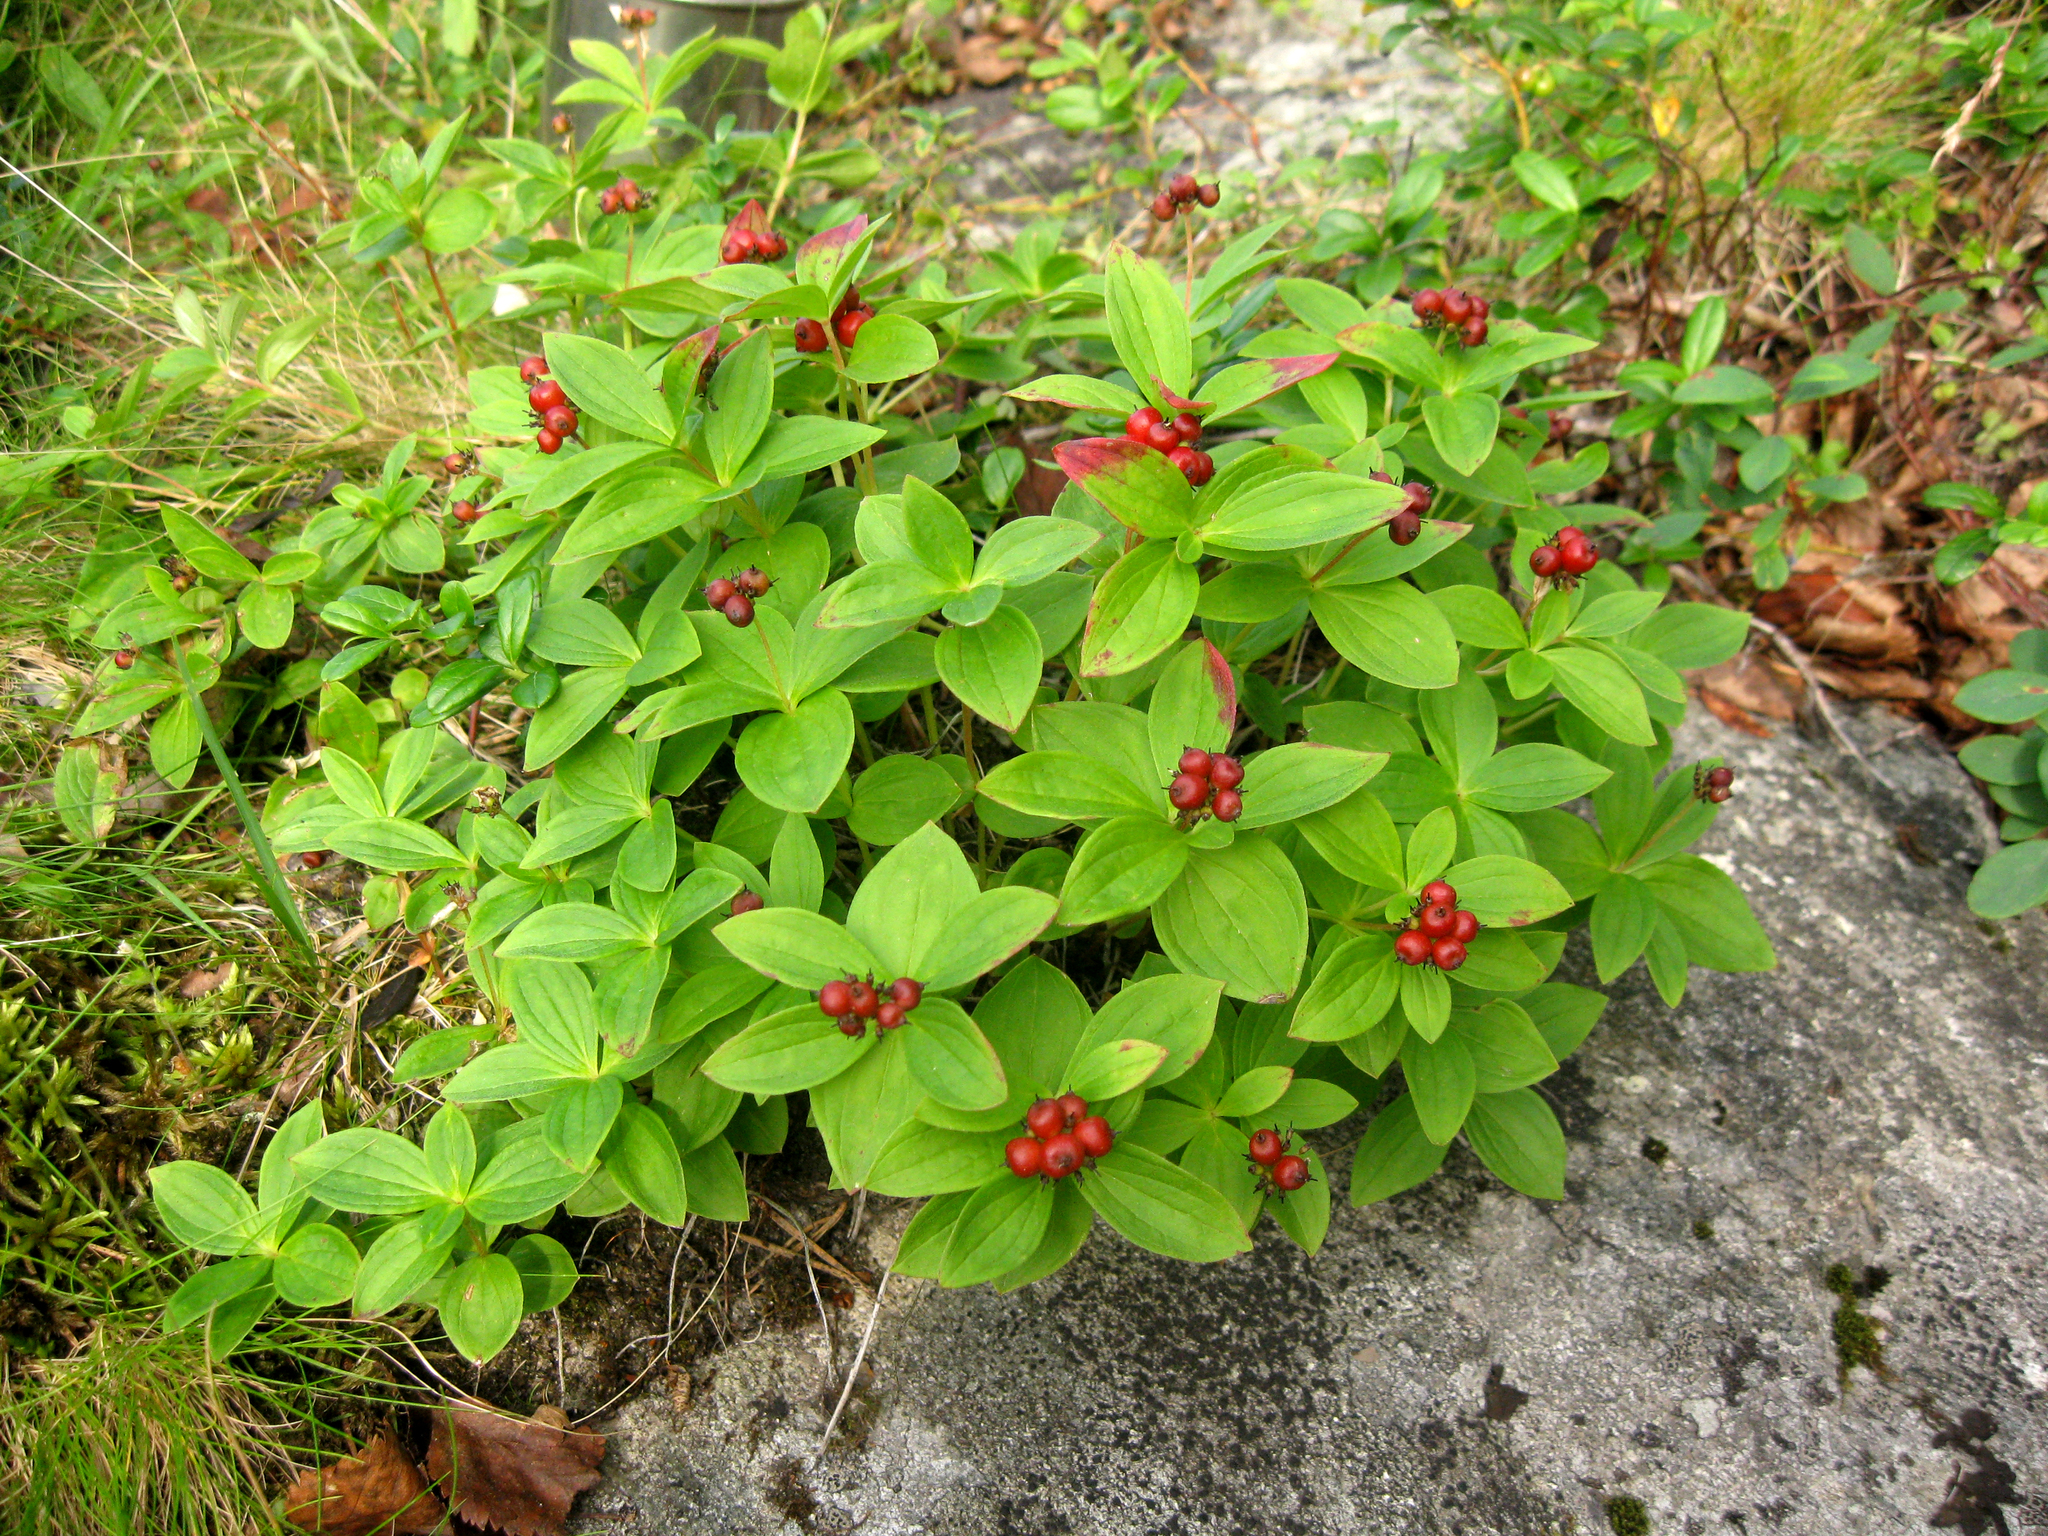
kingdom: Plantae
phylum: Tracheophyta
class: Magnoliopsida
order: Cornales
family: Cornaceae
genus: Cornus
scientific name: Cornus suecica
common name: Dwarf cornel
